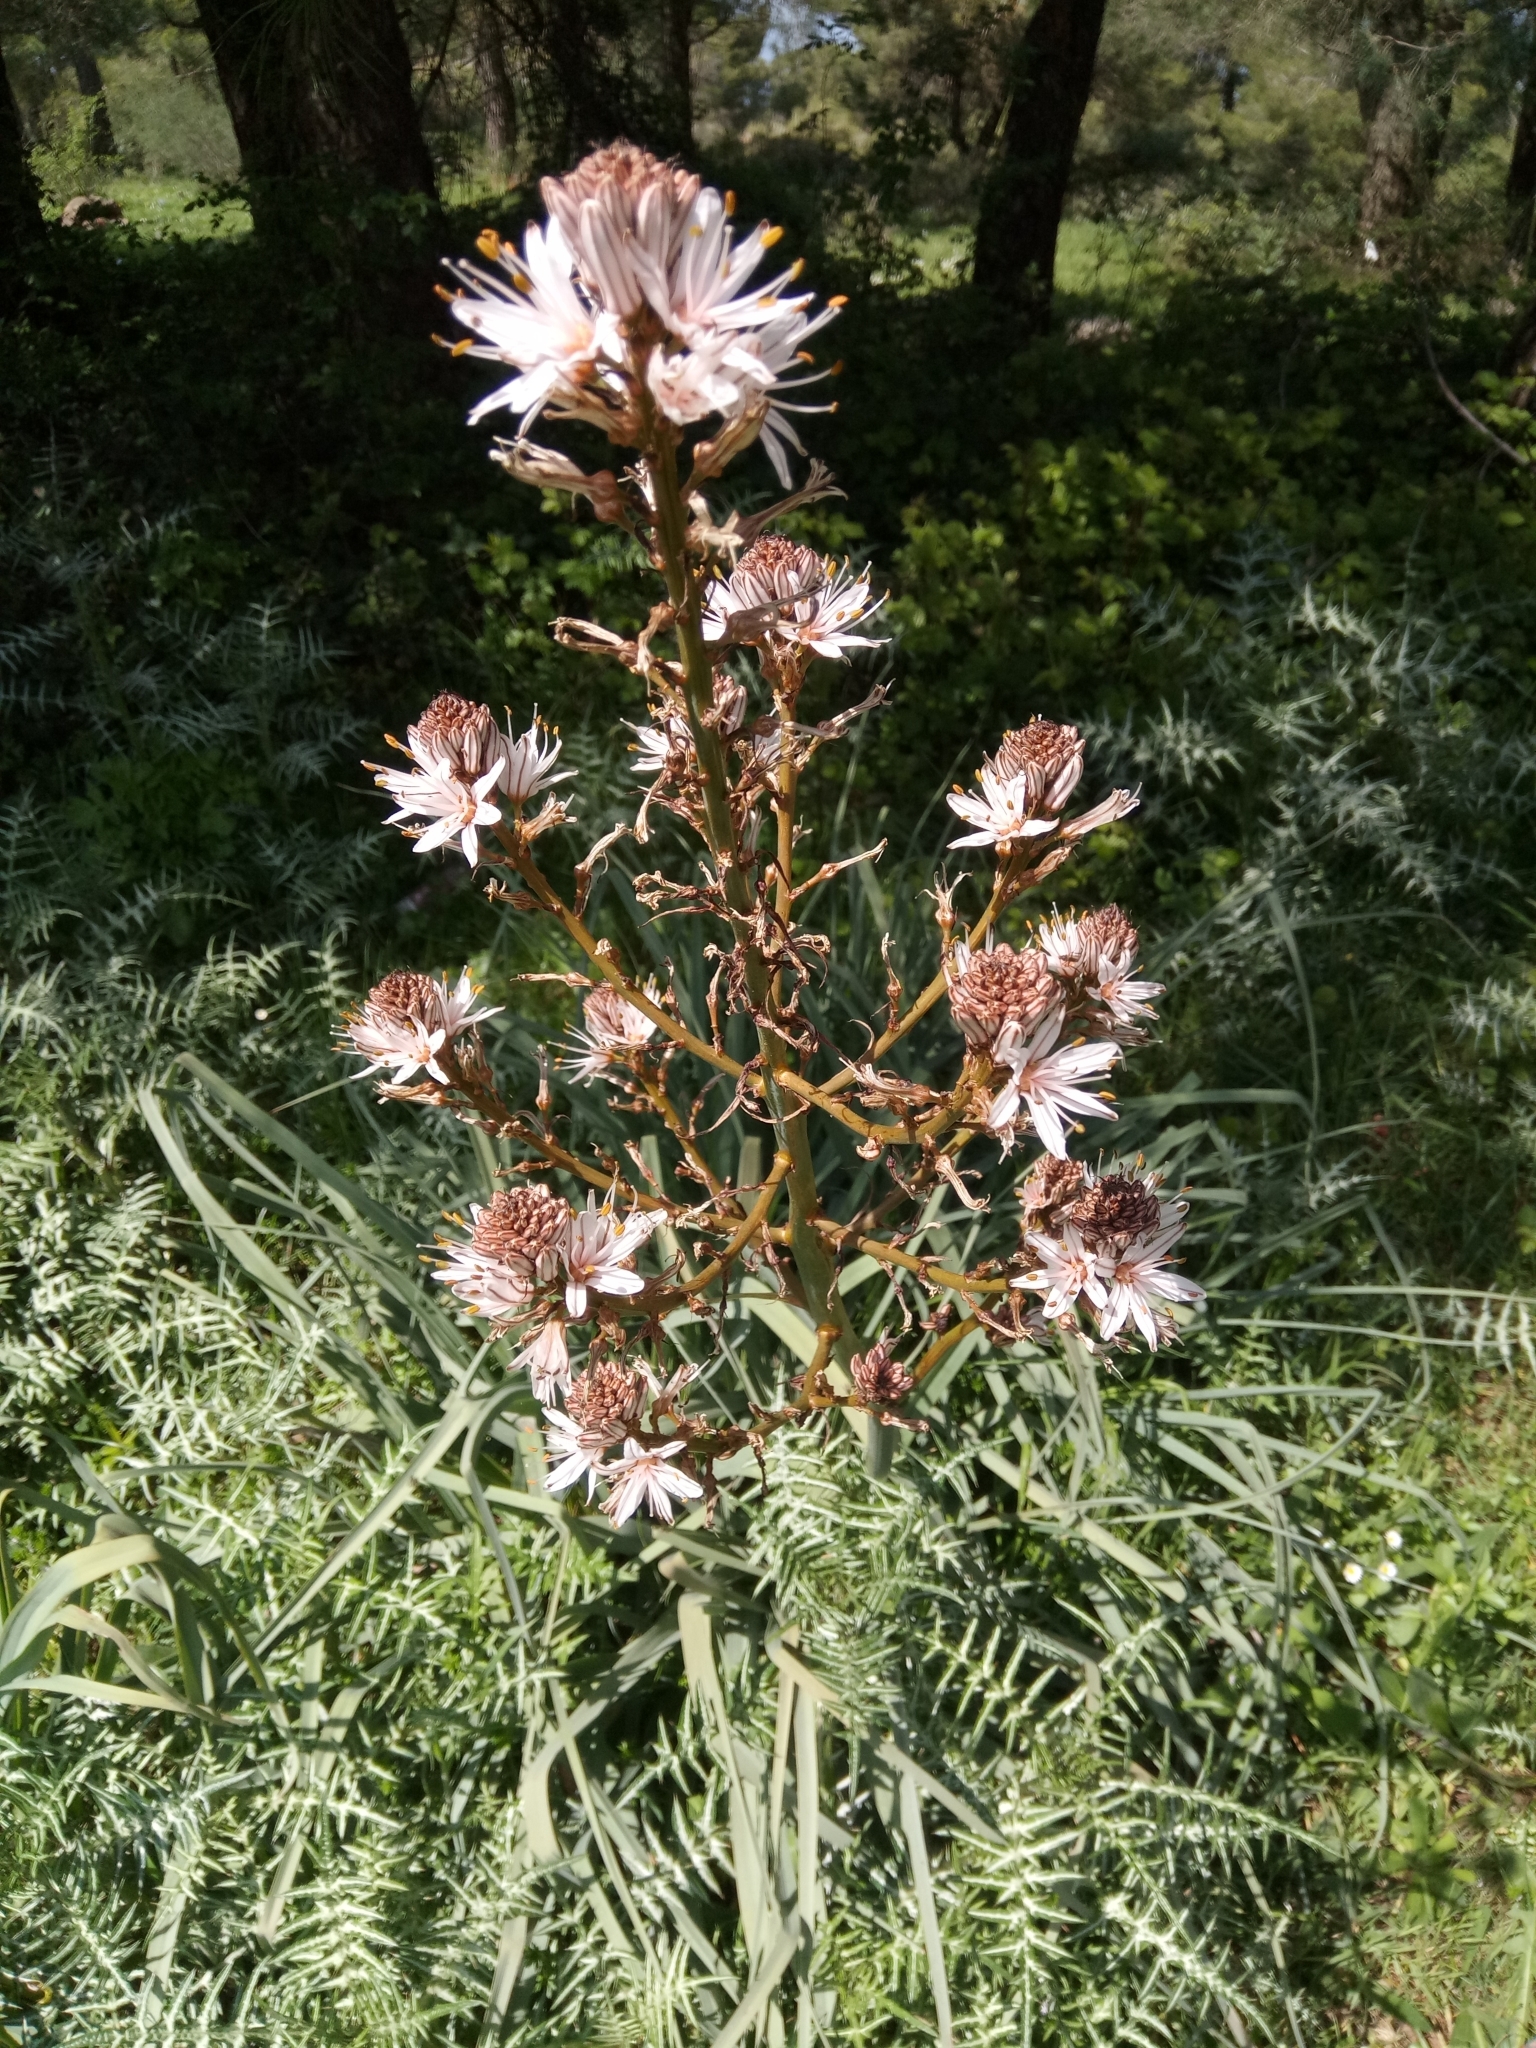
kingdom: Plantae
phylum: Tracheophyta
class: Liliopsida
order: Asparagales
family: Asphodelaceae
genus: Asphodelus
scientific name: Asphodelus ramosus
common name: Silverrod
